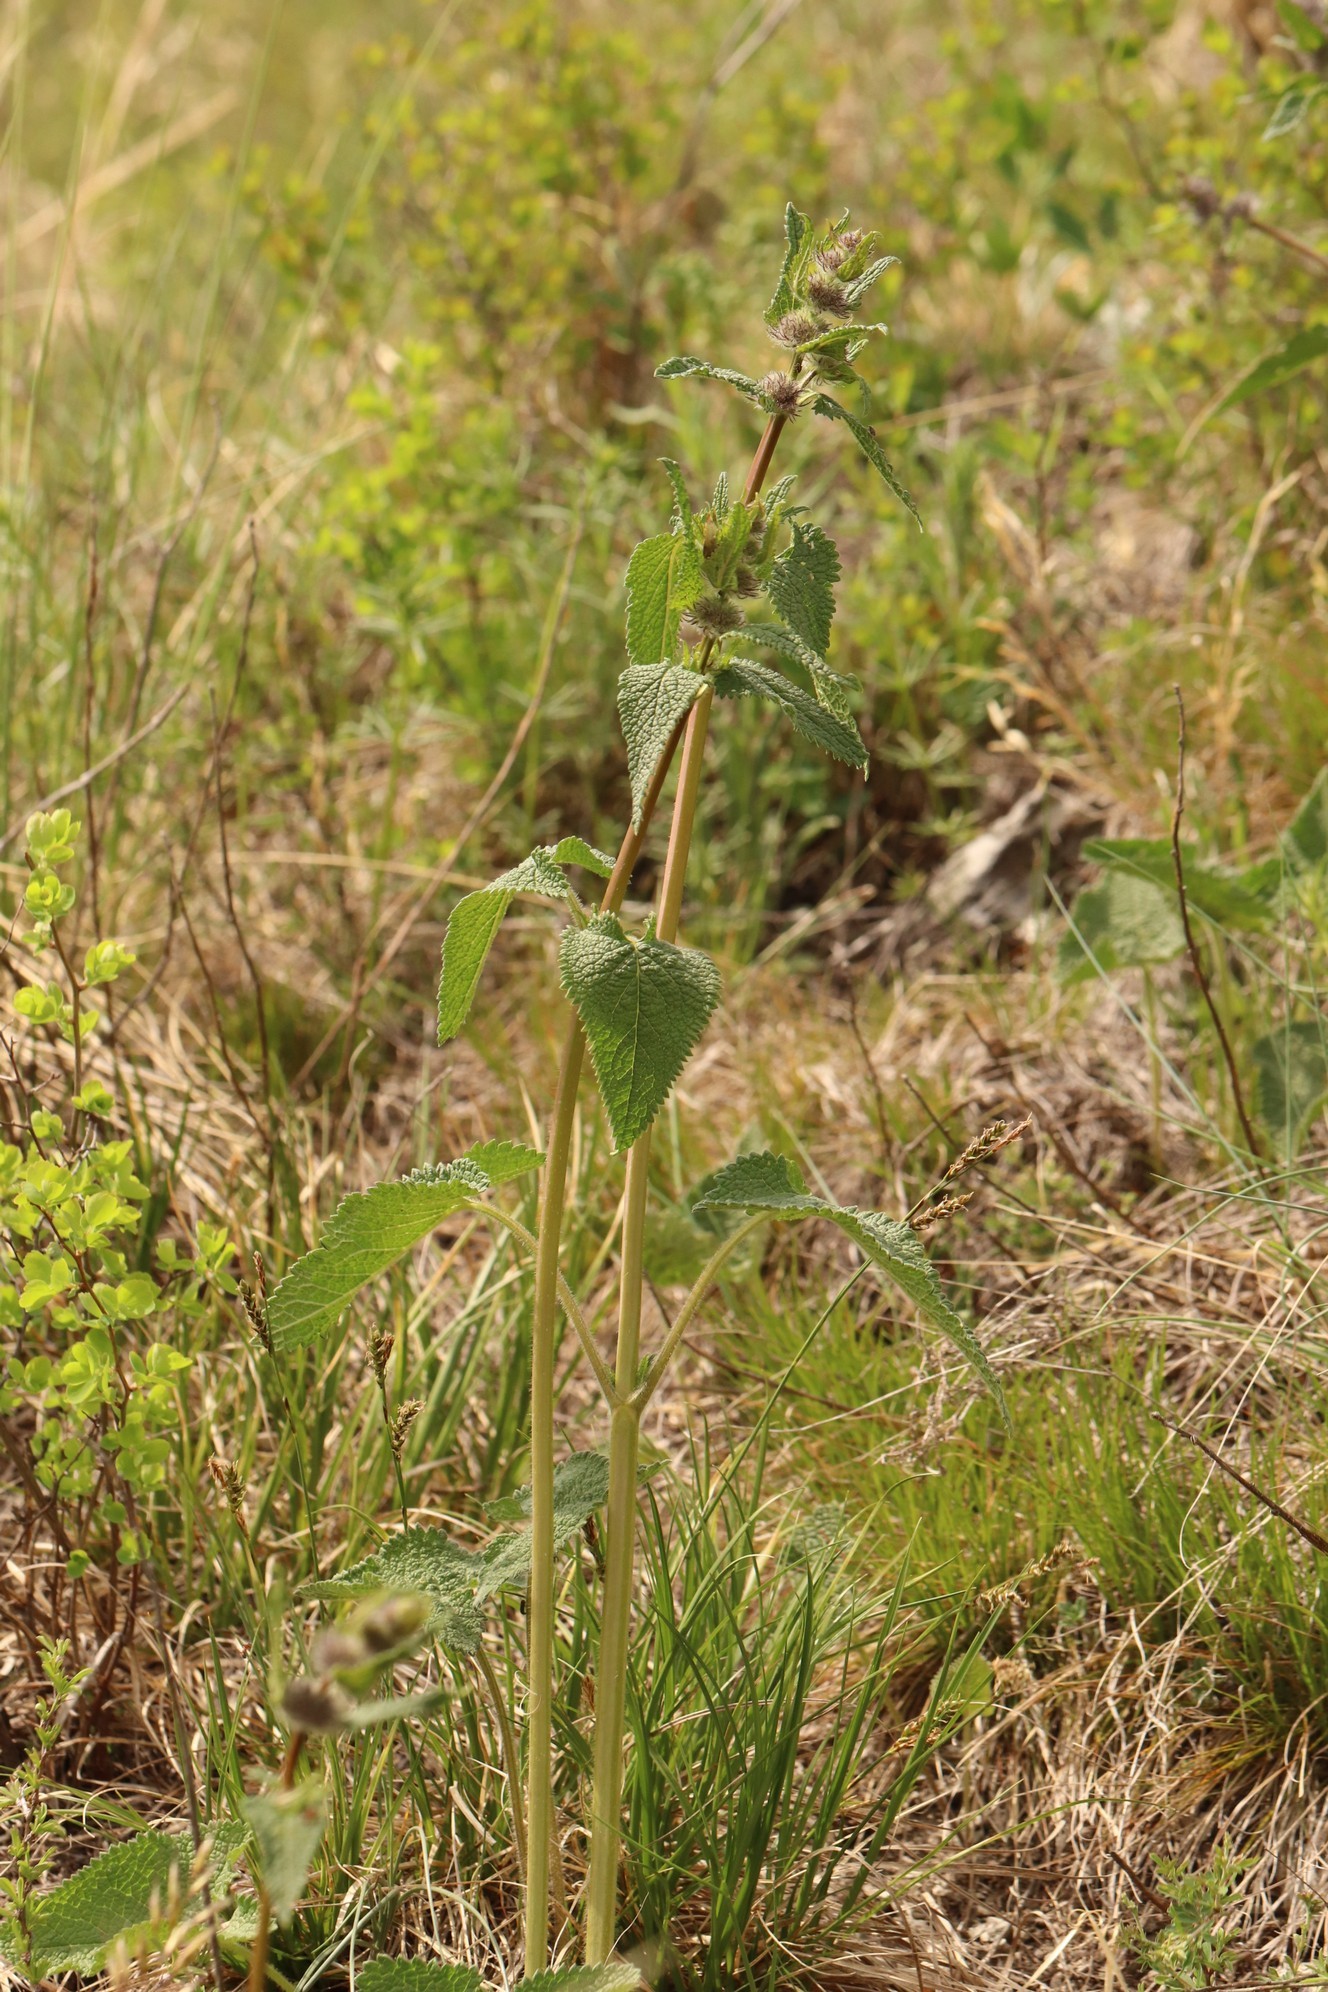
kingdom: Plantae
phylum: Tracheophyta
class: Magnoliopsida
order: Lamiales
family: Lamiaceae
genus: Phlomoides
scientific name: Phlomoides tuberosa
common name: Tuberous jerusalem sage
